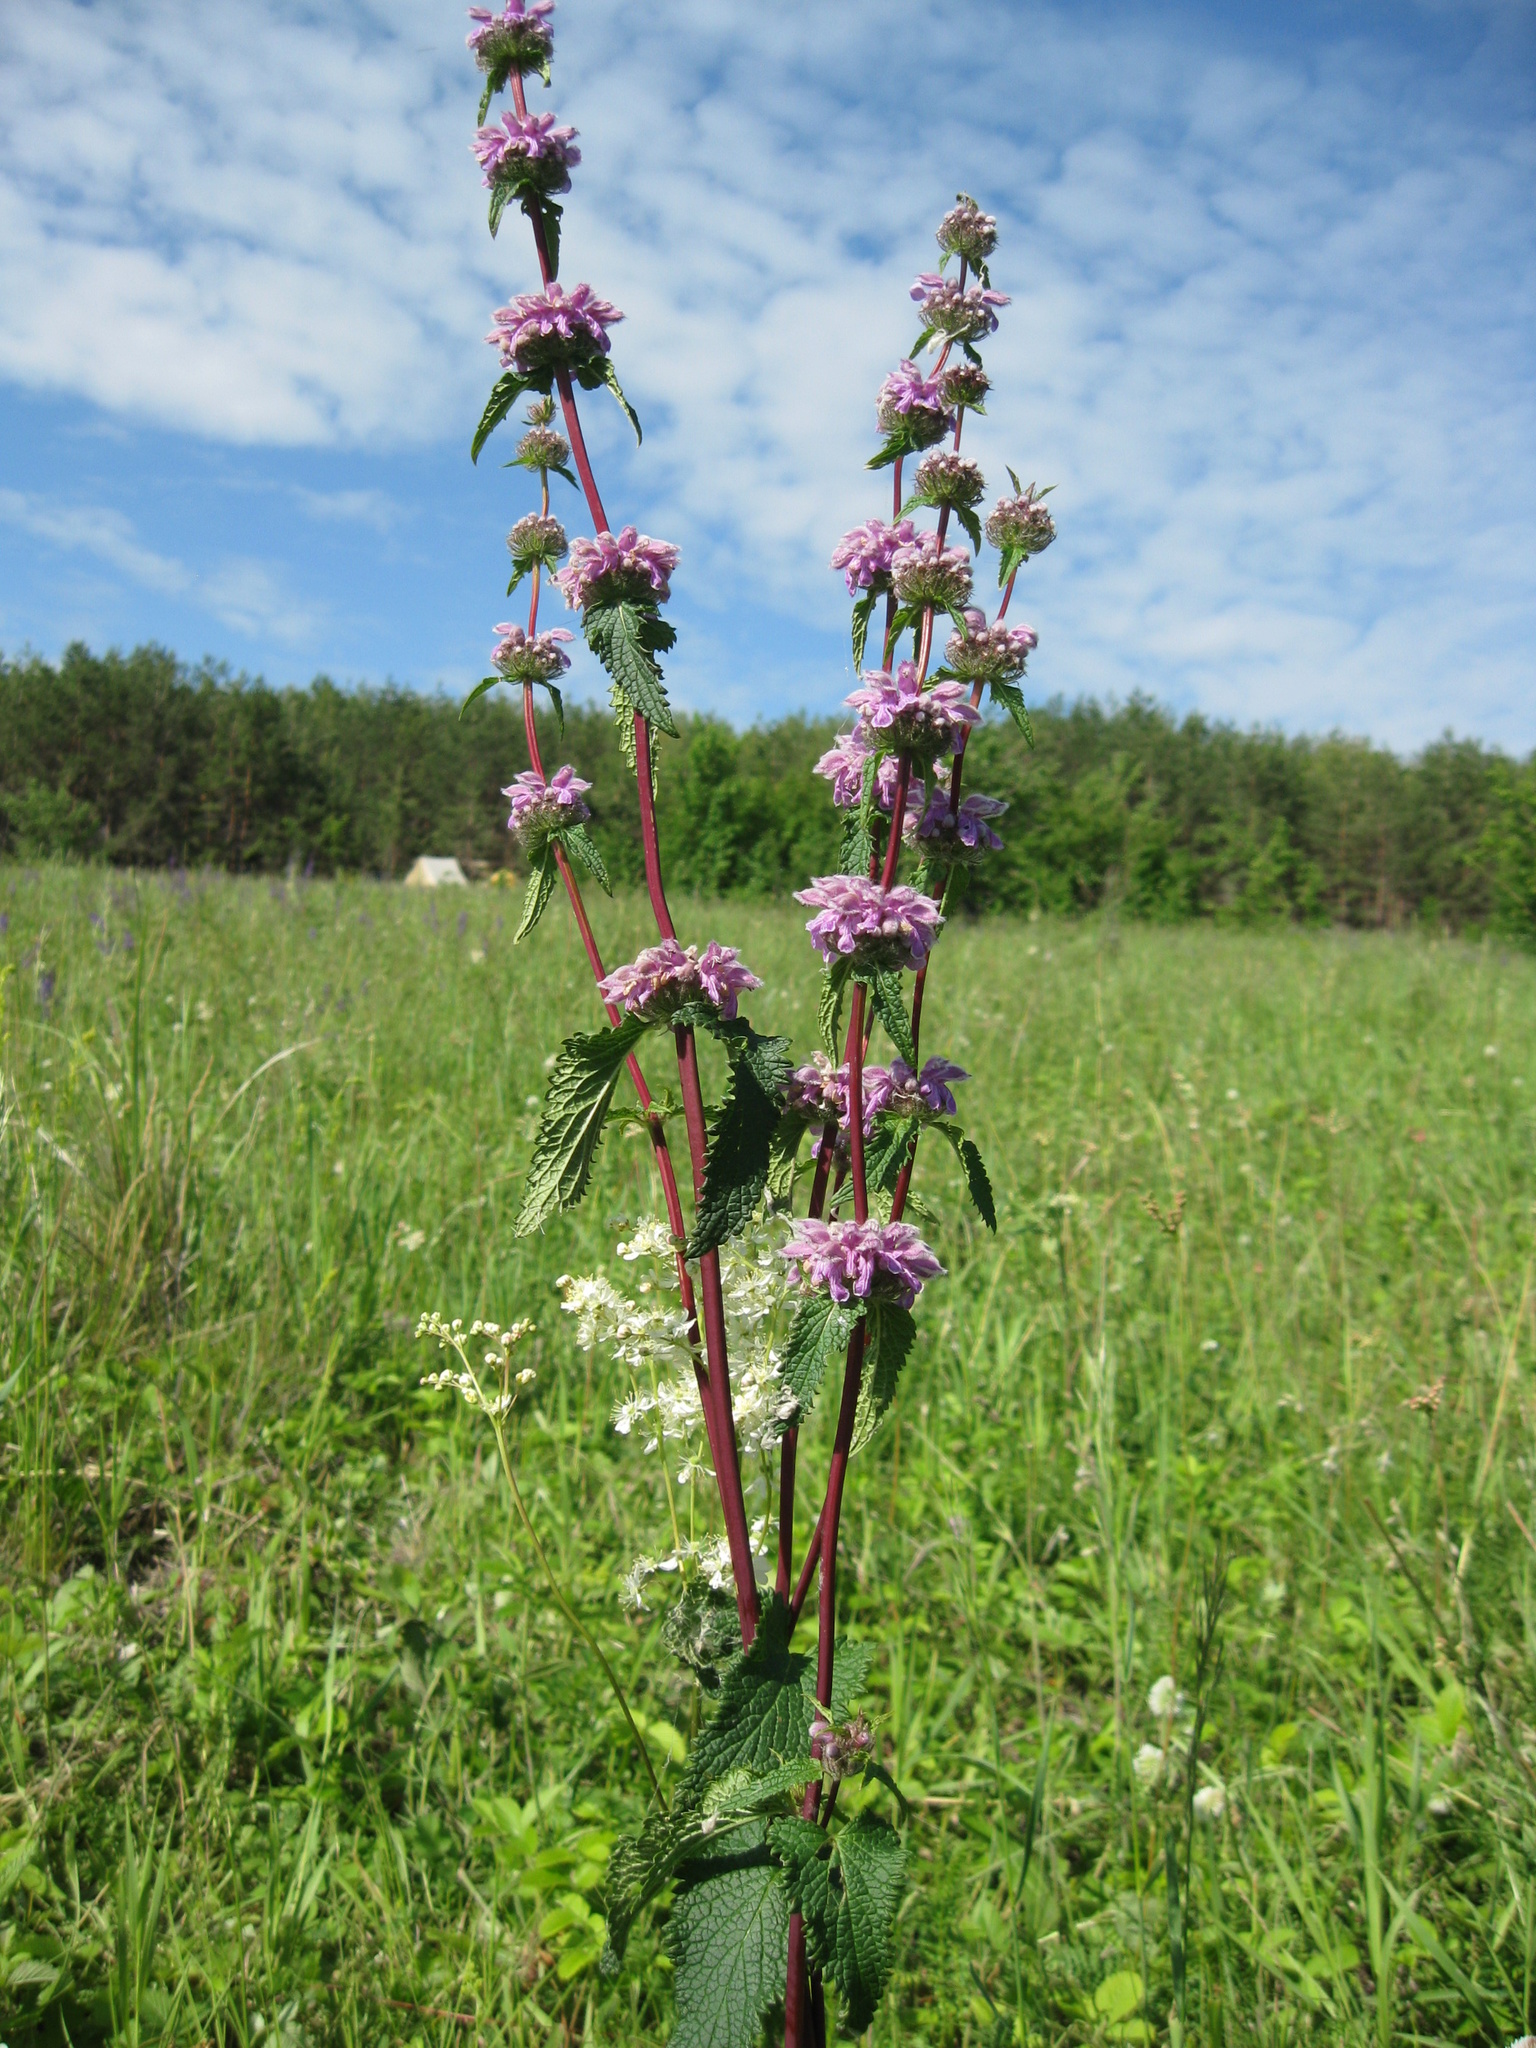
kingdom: Plantae
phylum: Tracheophyta
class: Magnoliopsida
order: Lamiales
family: Lamiaceae
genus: Phlomoides
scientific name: Phlomoides tuberosa
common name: Tuberous jerusalem sage
